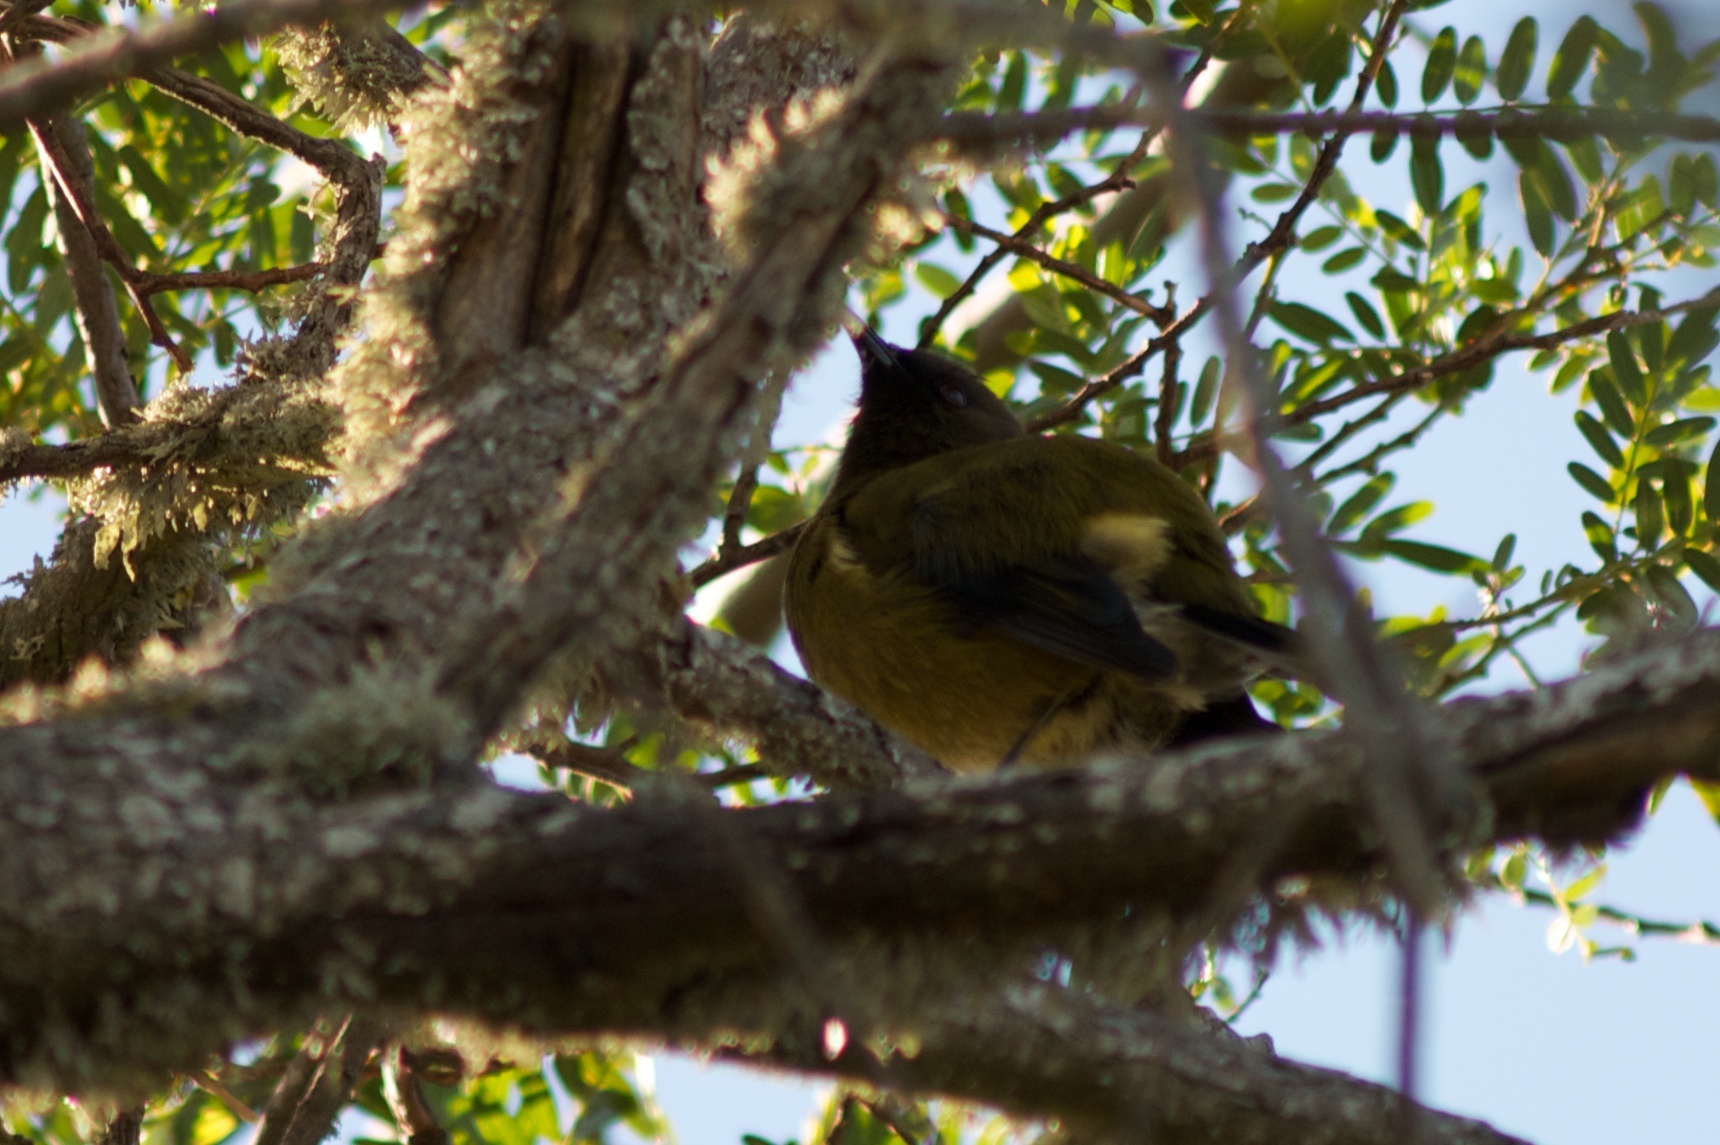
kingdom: Animalia
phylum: Chordata
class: Aves
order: Passeriformes
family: Meliphagidae
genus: Anthornis
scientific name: Anthornis melanura
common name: New zealand bellbird
